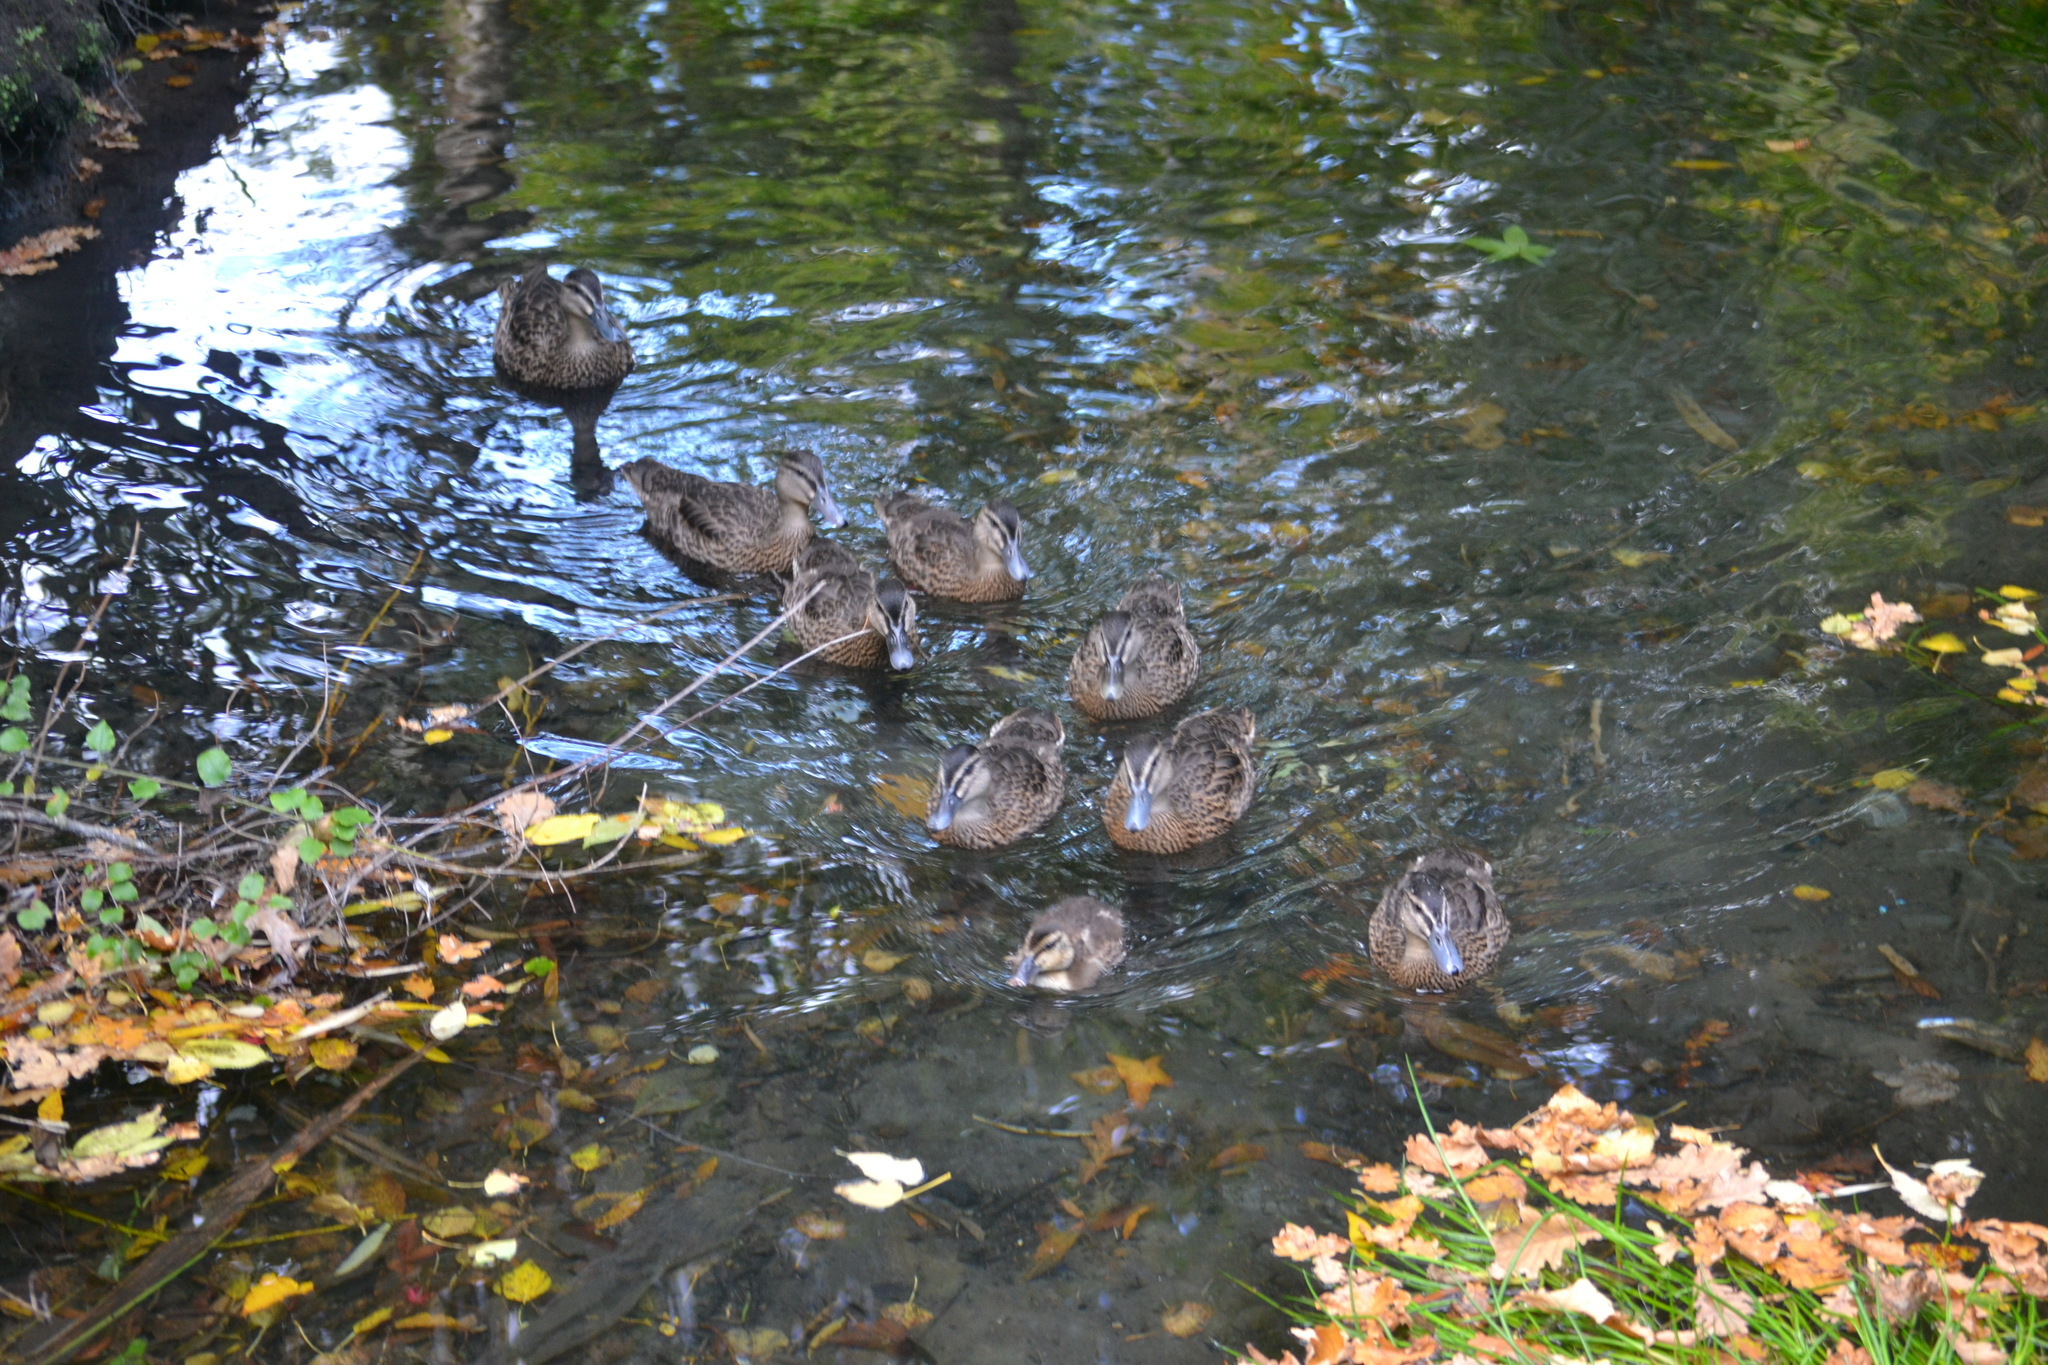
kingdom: Animalia
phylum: Chordata
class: Aves
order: Anseriformes
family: Anatidae
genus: Anas
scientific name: Anas
